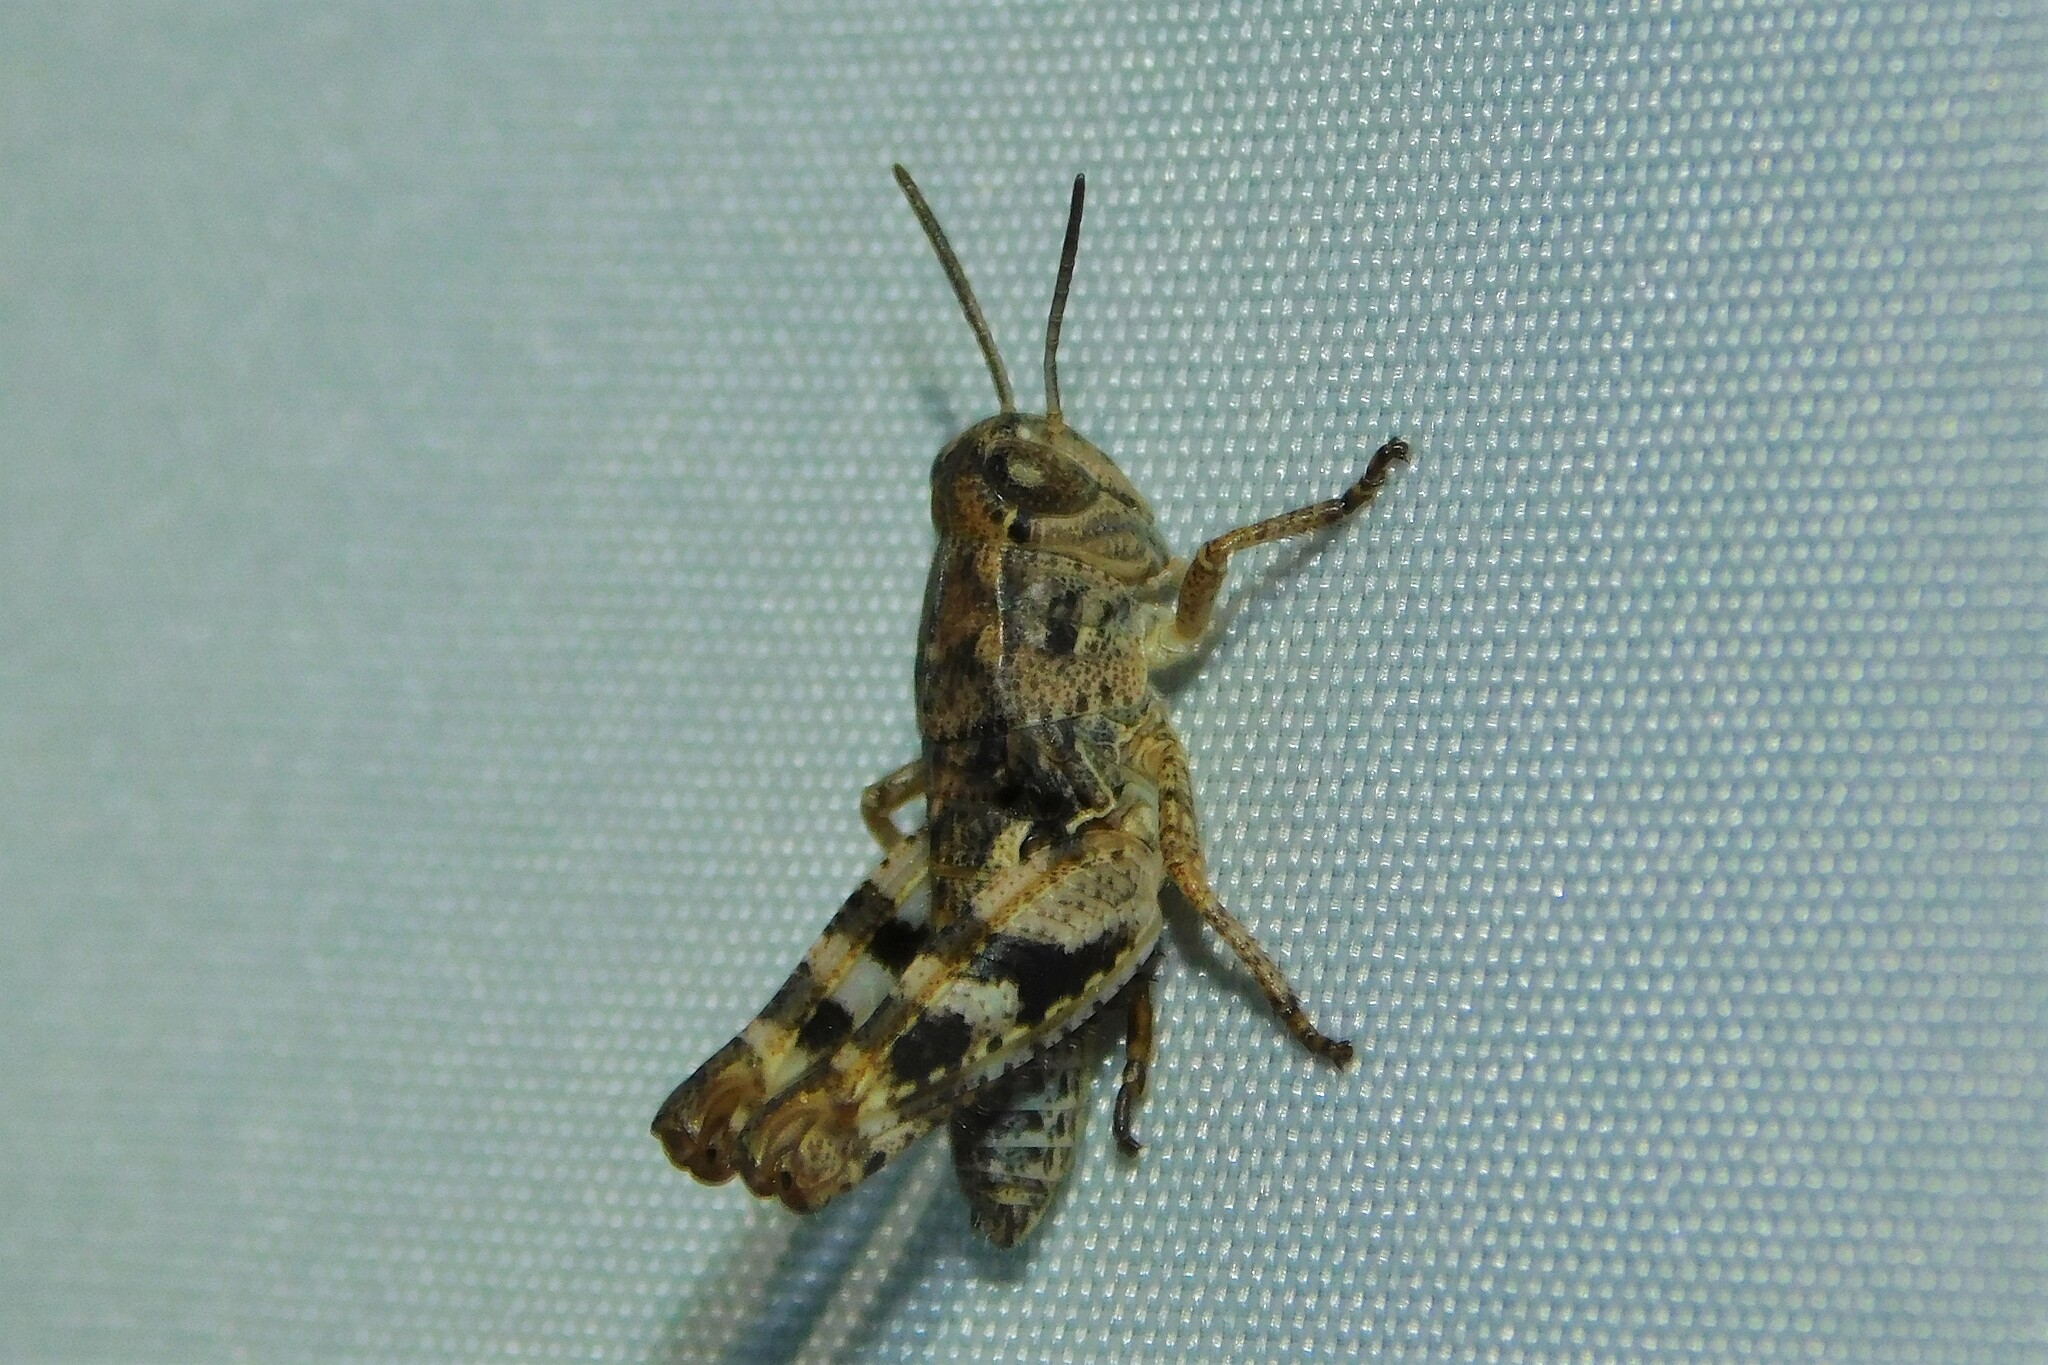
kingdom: Animalia
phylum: Arthropoda
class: Insecta
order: Orthoptera
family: Acrididae
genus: Calliptamus
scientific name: Calliptamus italicus
